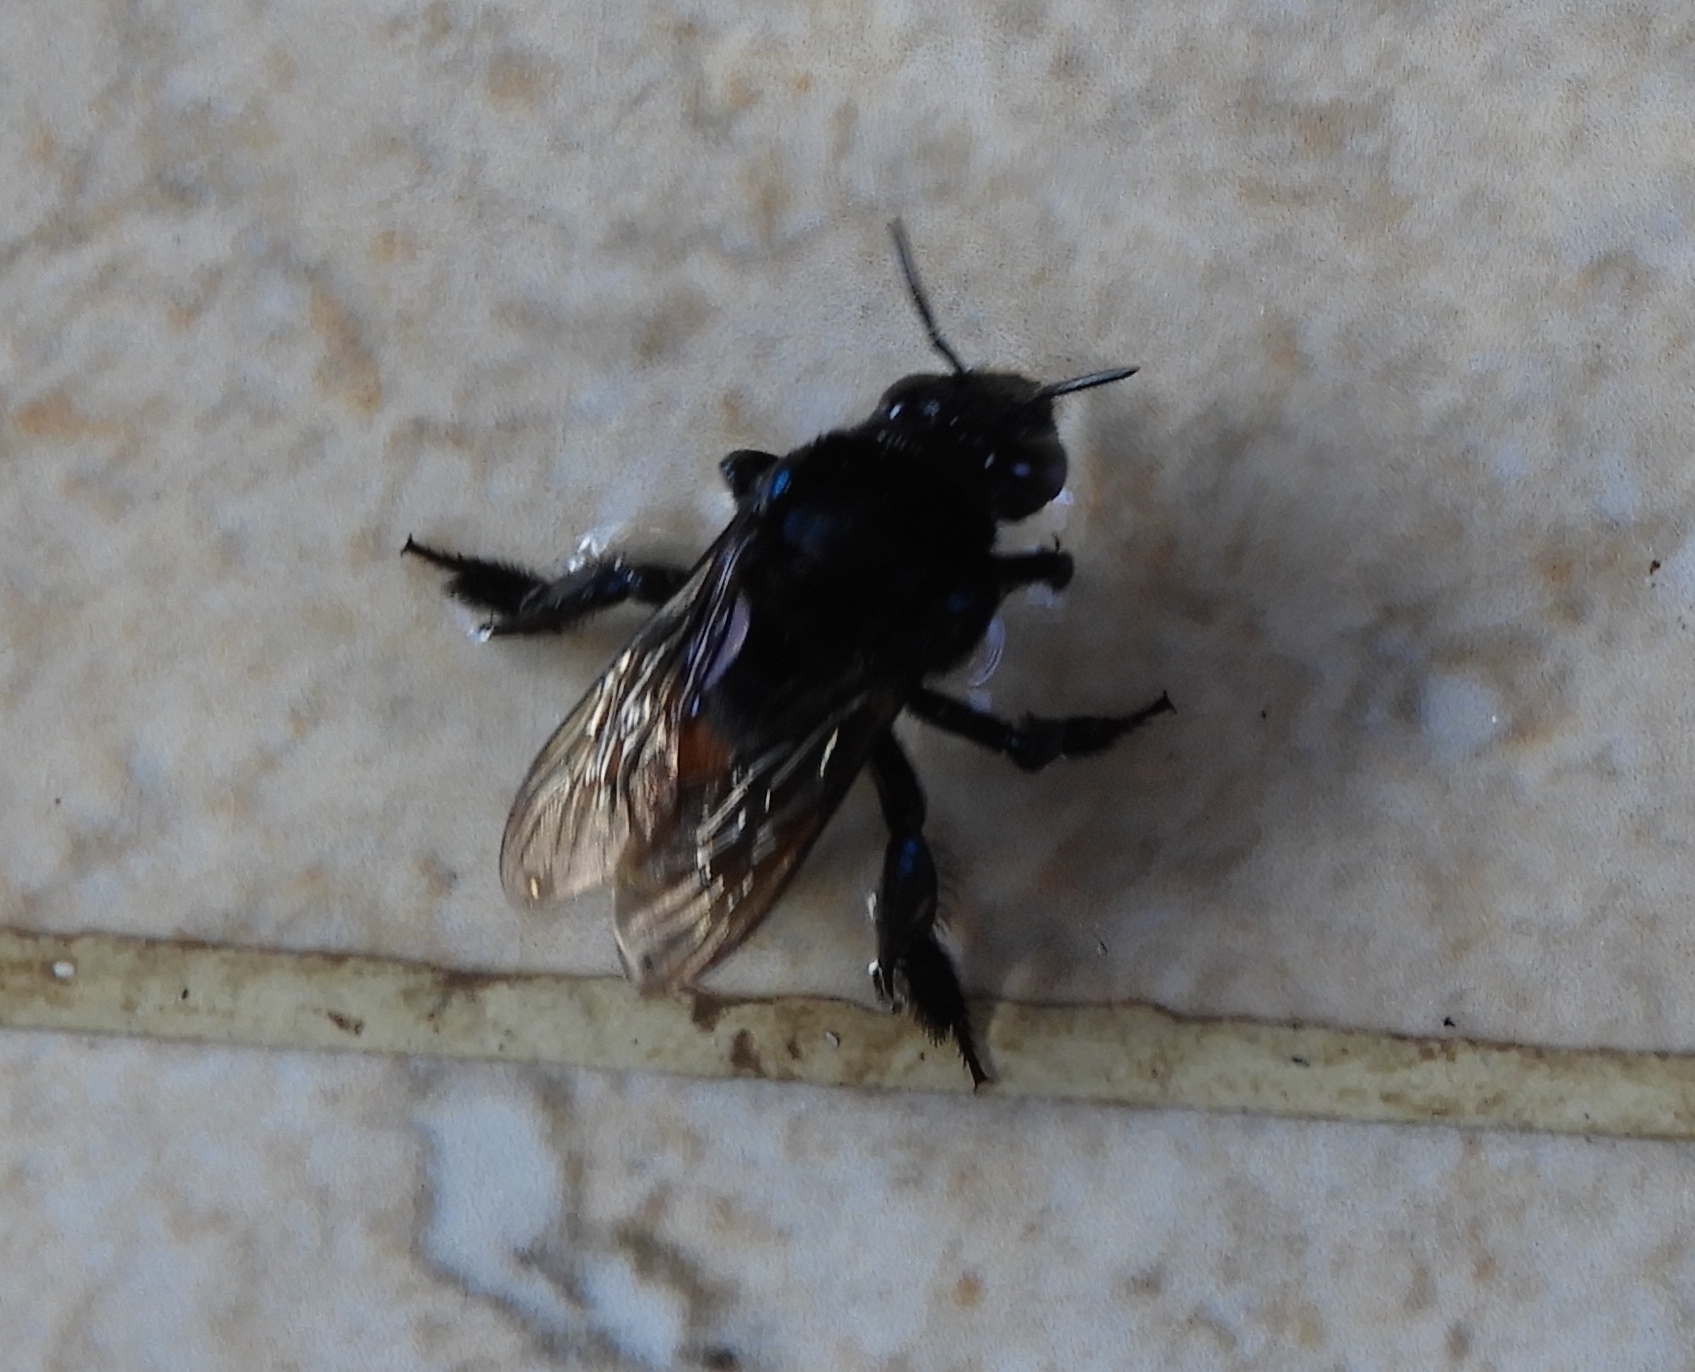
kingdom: Animalia
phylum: Arthropoda
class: Insecta
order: Hymenoptera
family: Apidae
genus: Eufriesea
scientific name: Eufriesea
